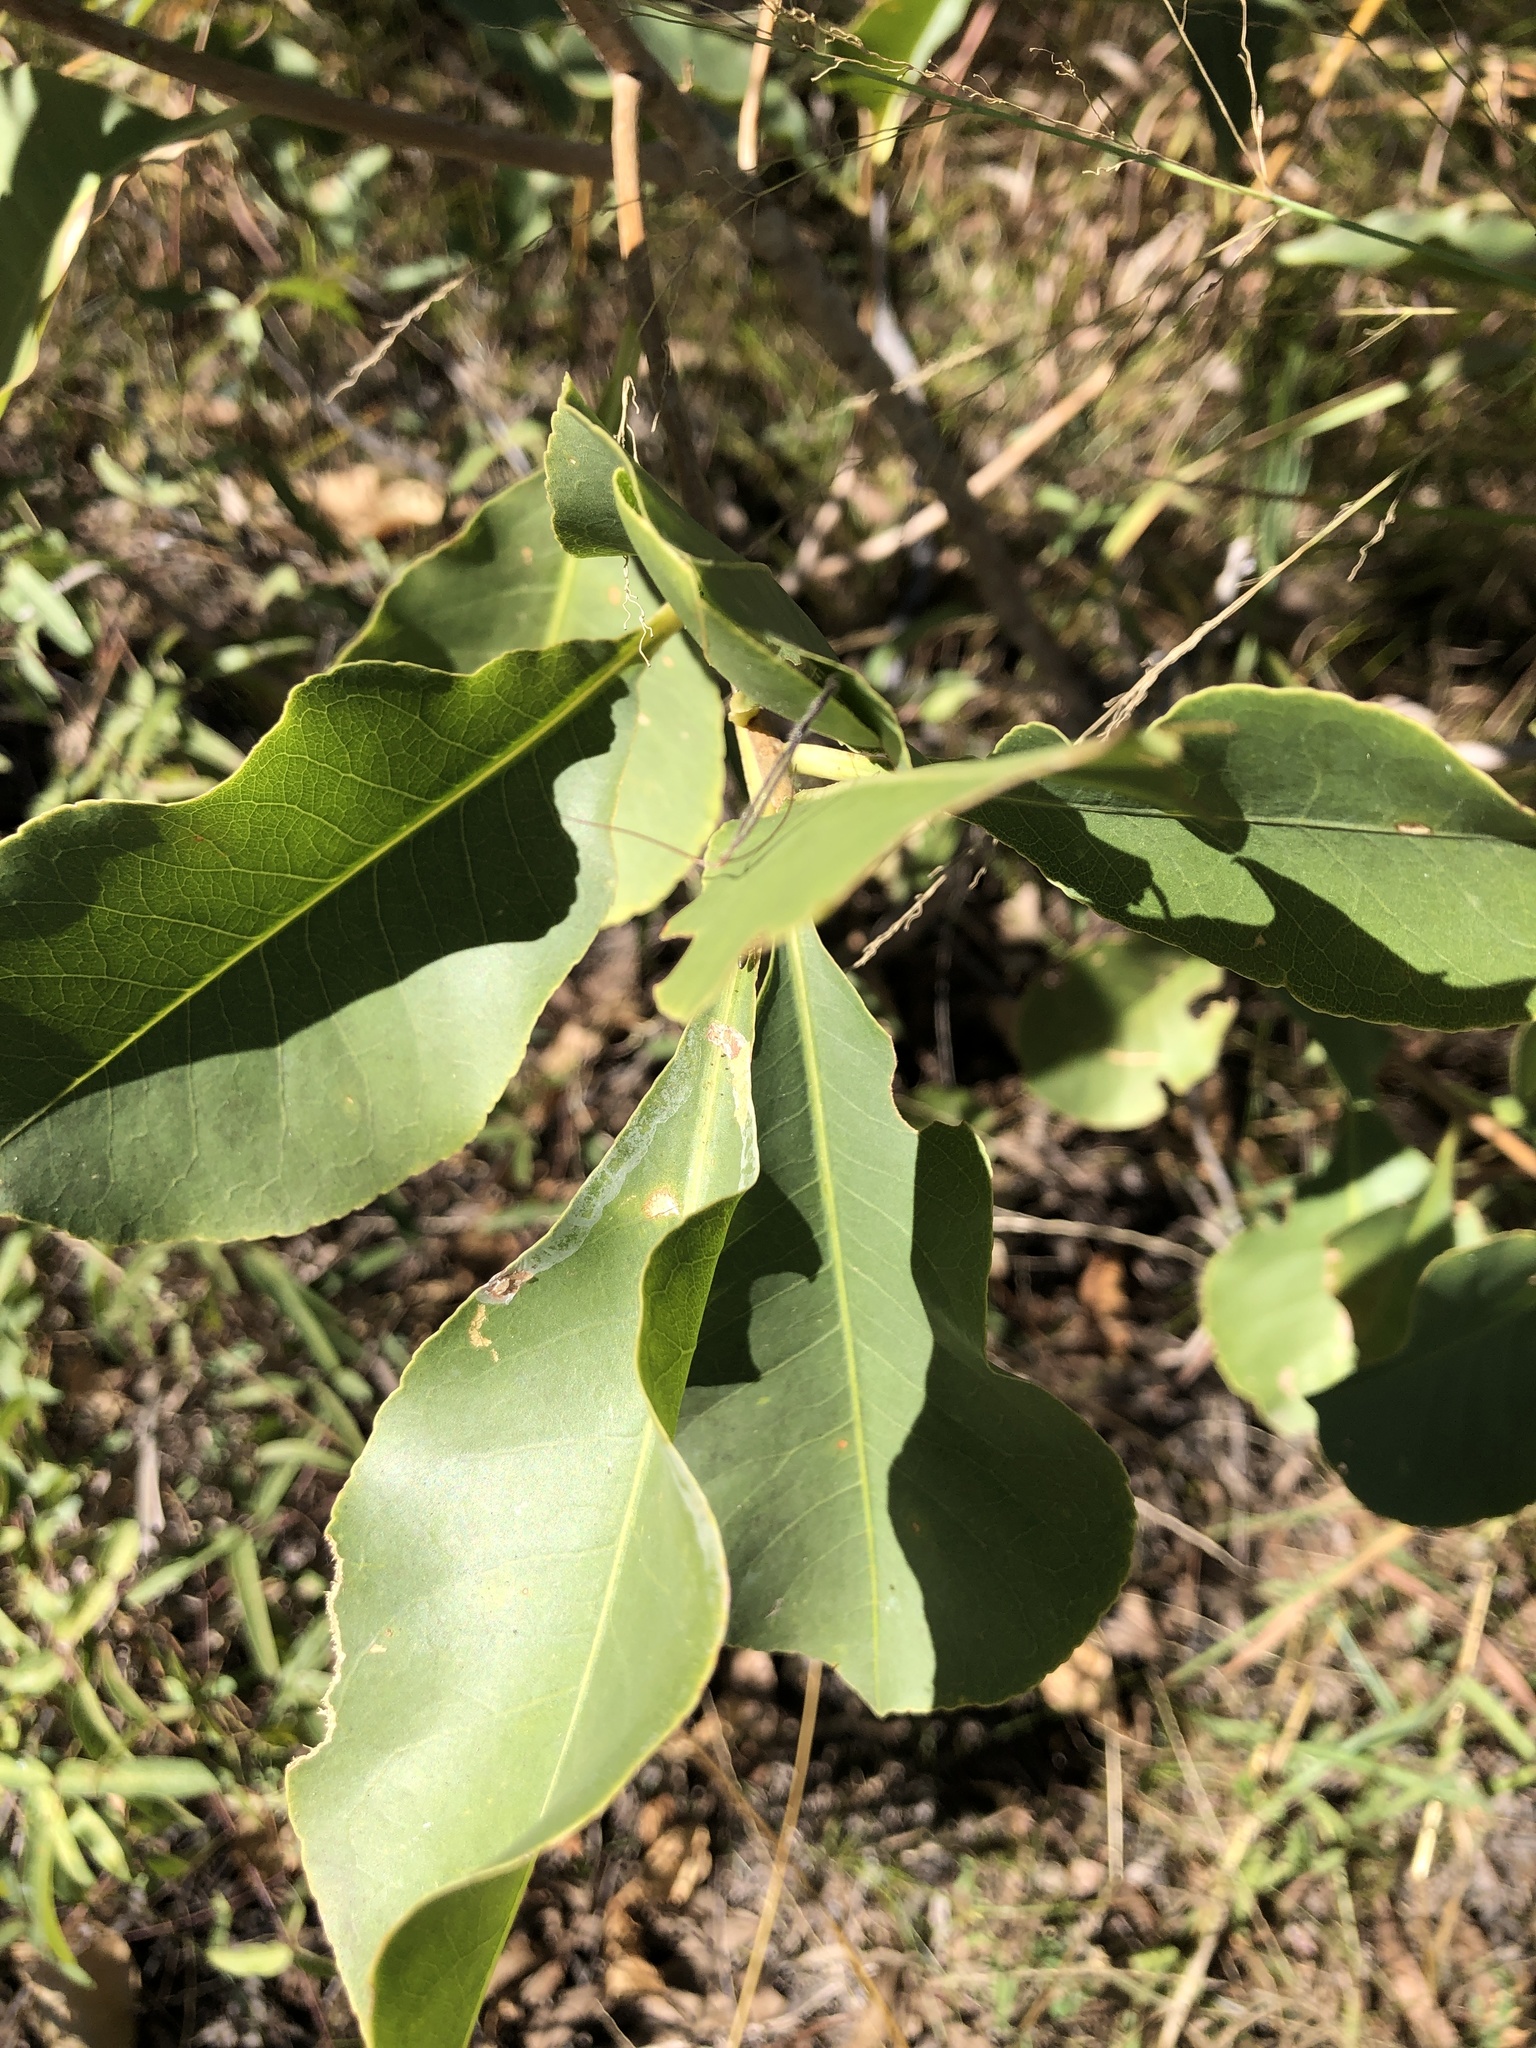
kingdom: Plantae
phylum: Tracheophyta
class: Magnoliopsida
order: Ericales
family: Lecythidaceae
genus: Planchonia
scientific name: Planchonia careya
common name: Cockatoo-apple
